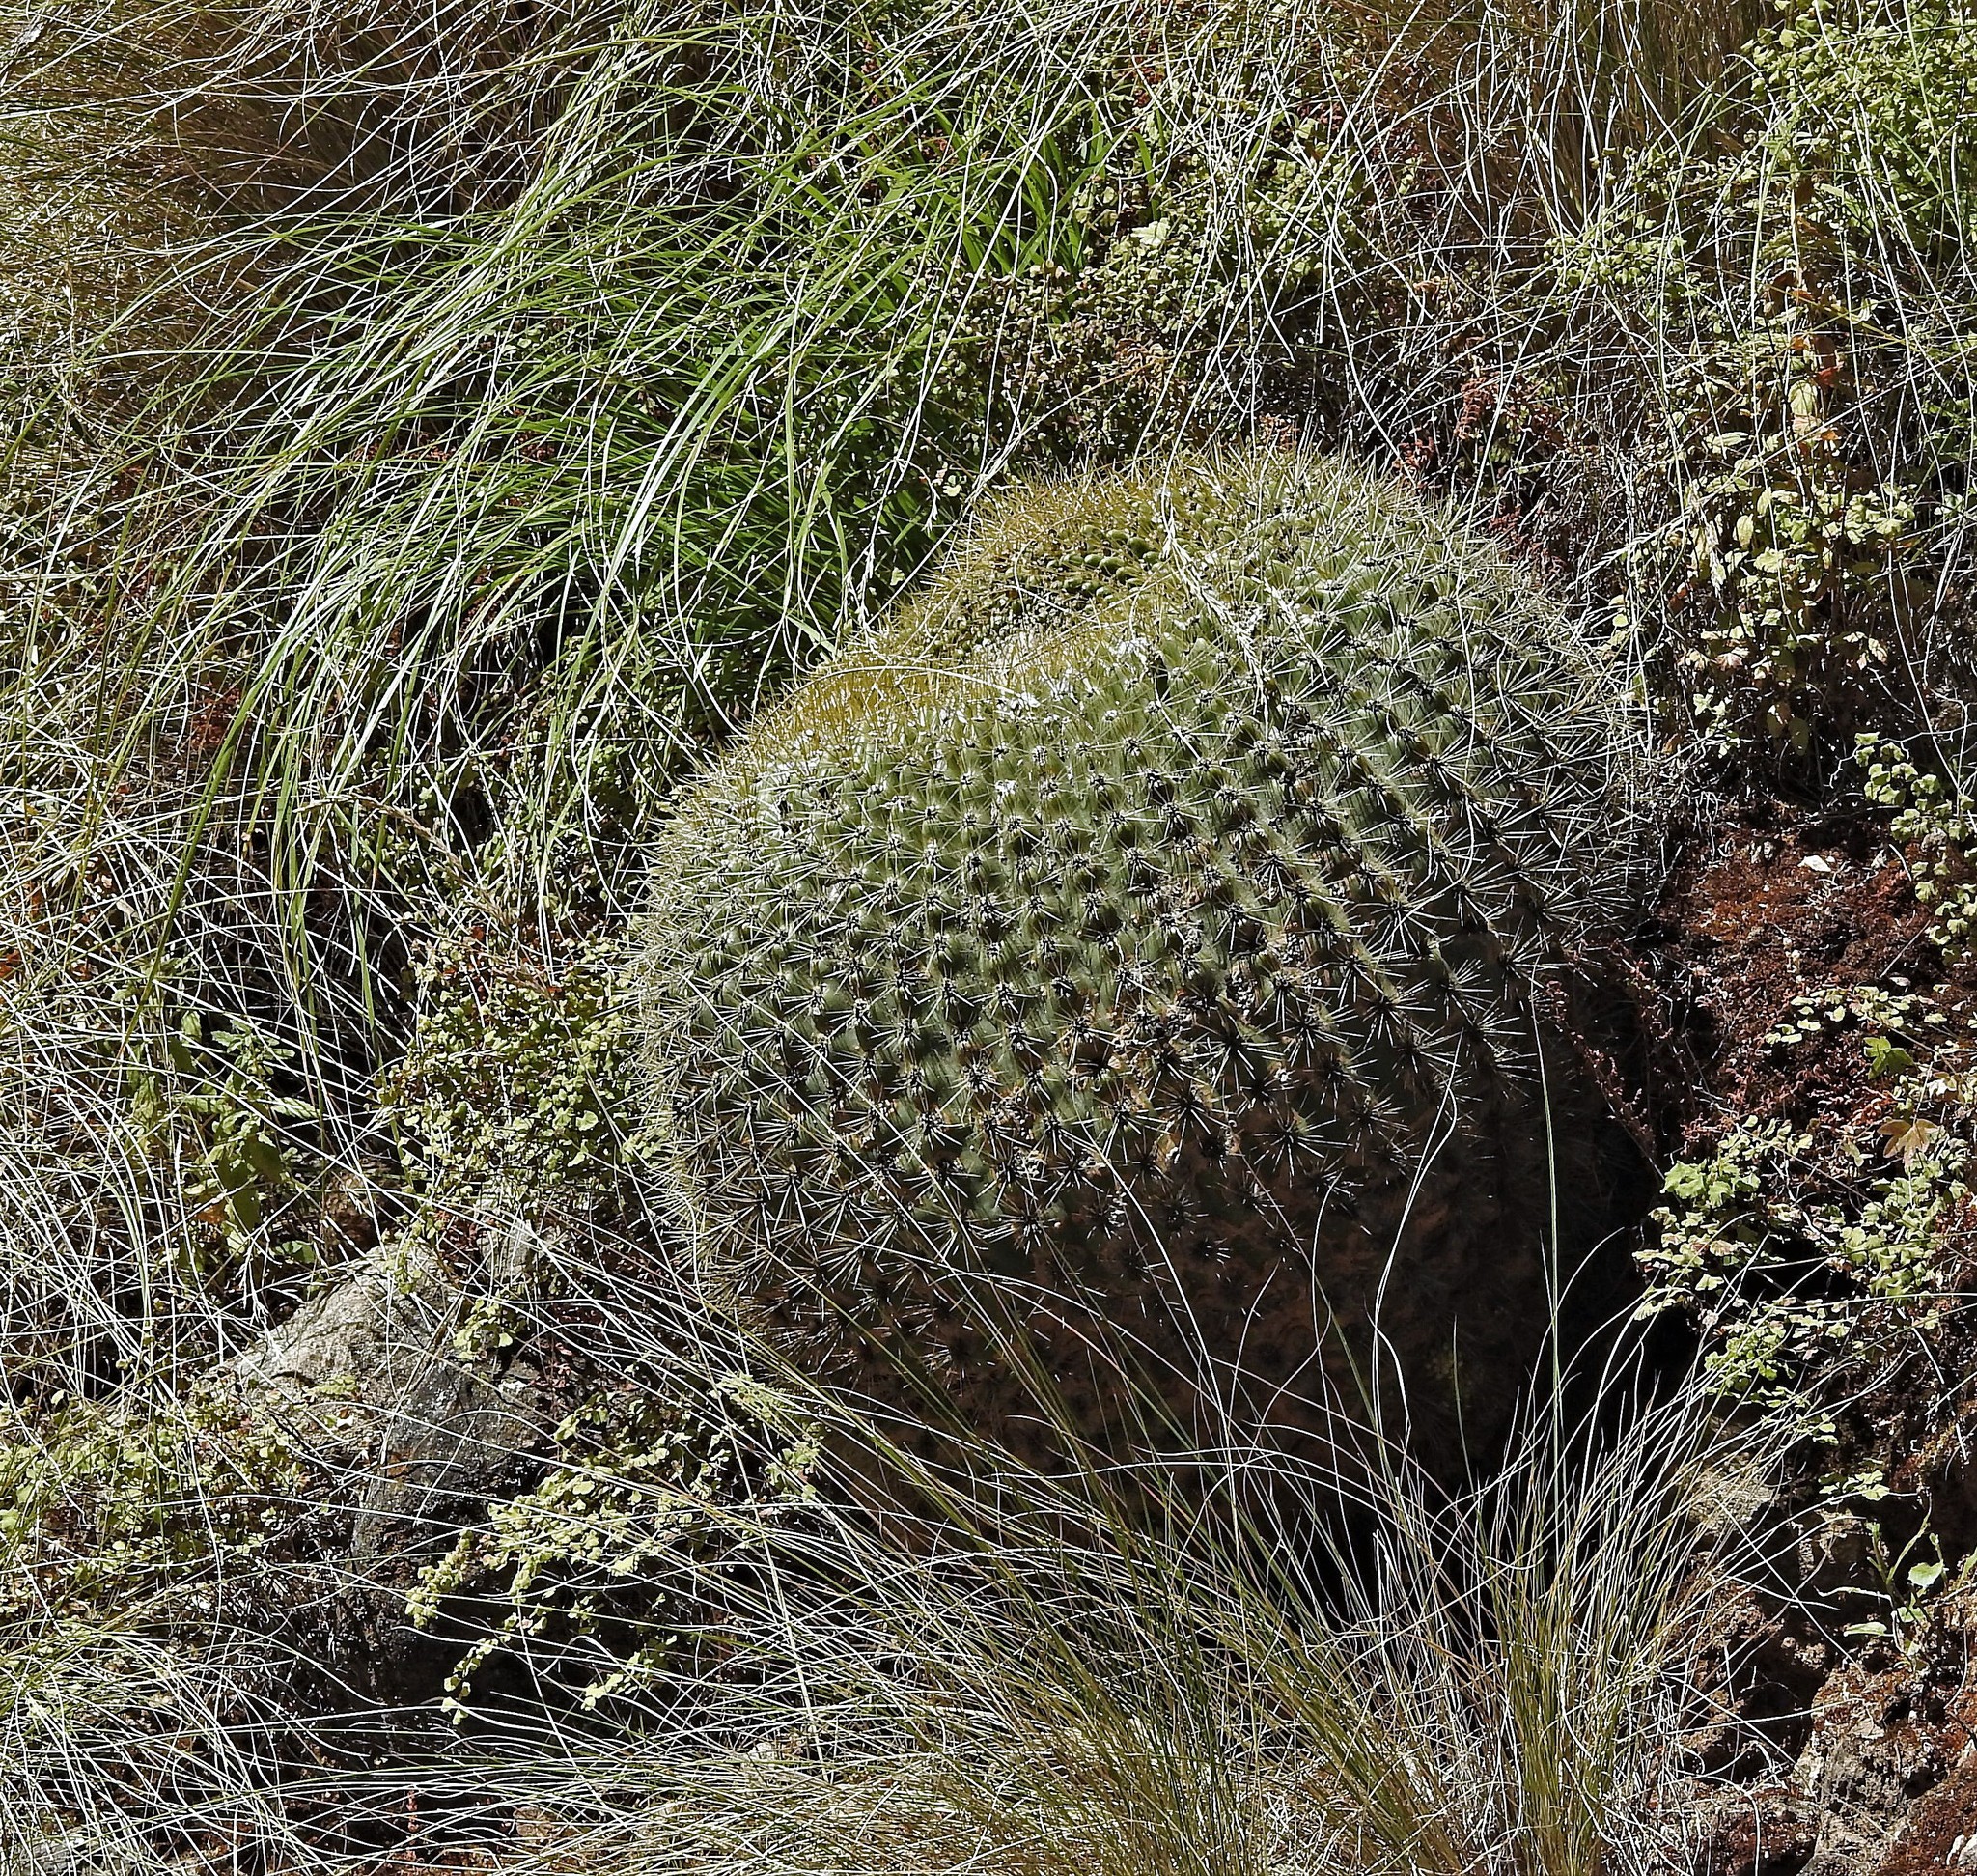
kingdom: Plantae
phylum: Tracheophyta
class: Magnoliopsida
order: Caryophyllales
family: Cactaceae
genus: Soehrensia
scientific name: Soehrensia bruchii
